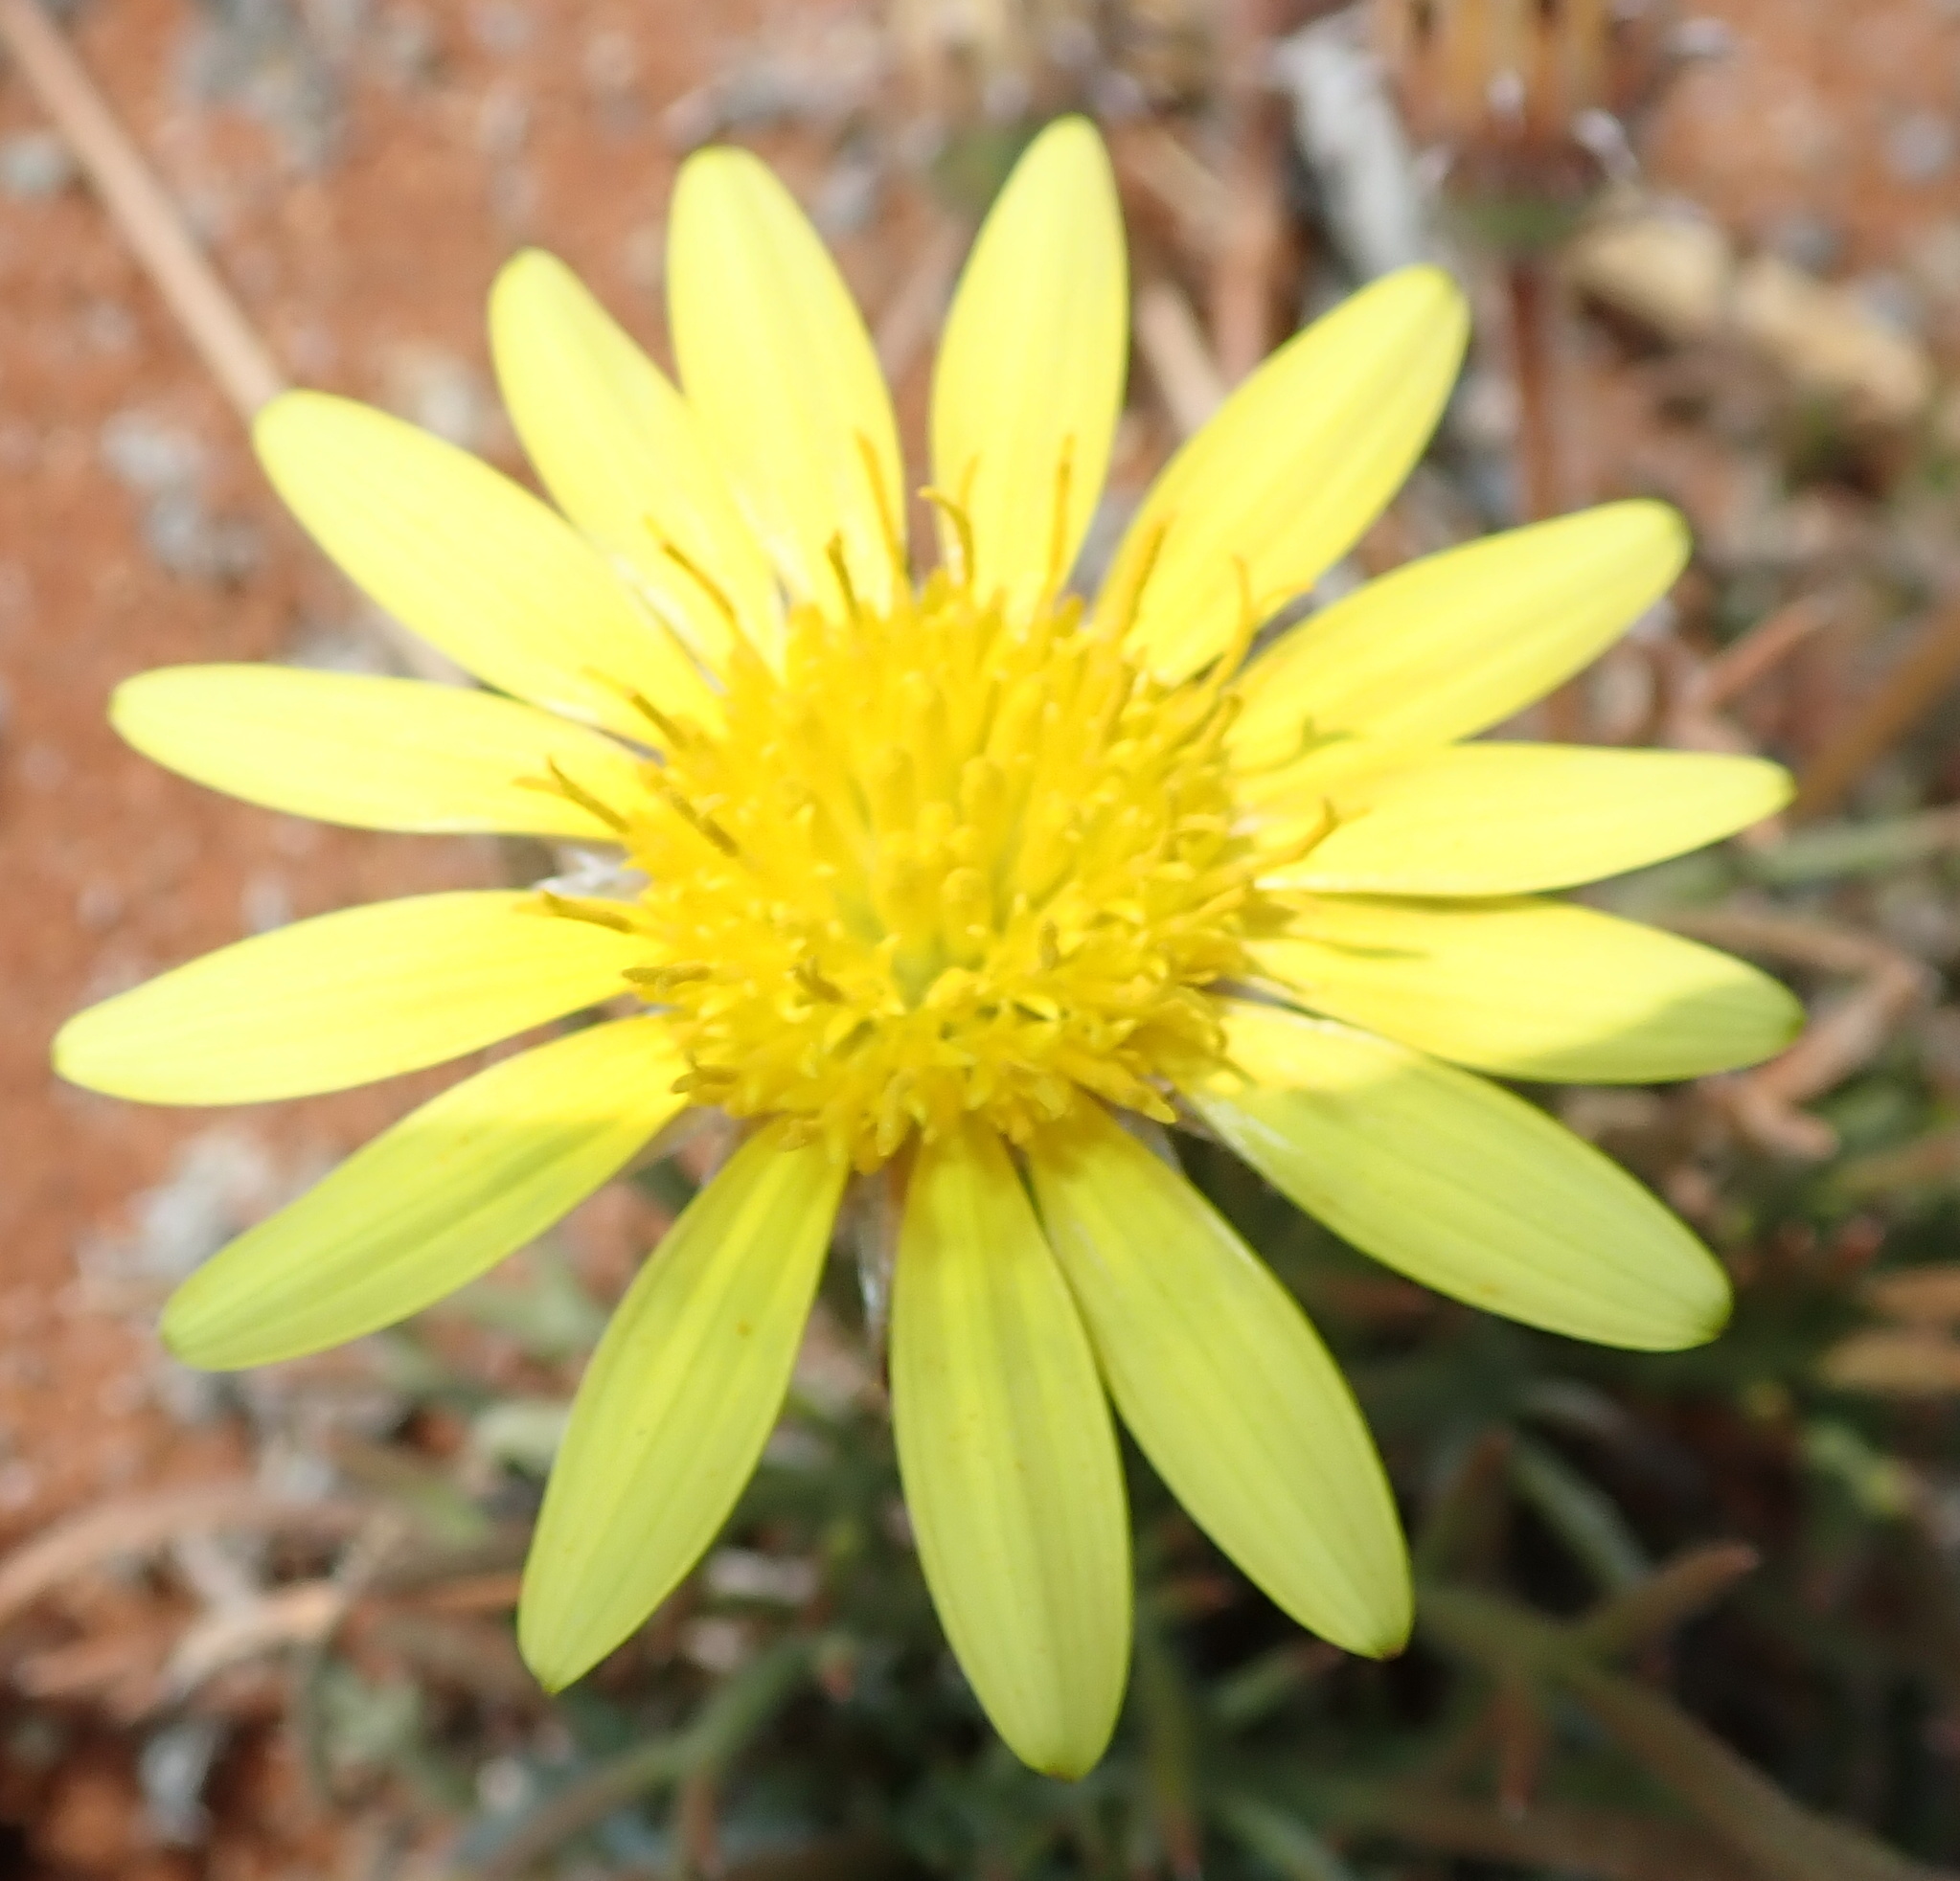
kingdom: Plantae
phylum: Tracheophyta
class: Magnoliopsida
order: Asterales
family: Asteraceae
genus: Hirpicium
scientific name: Hirpicium echinus
